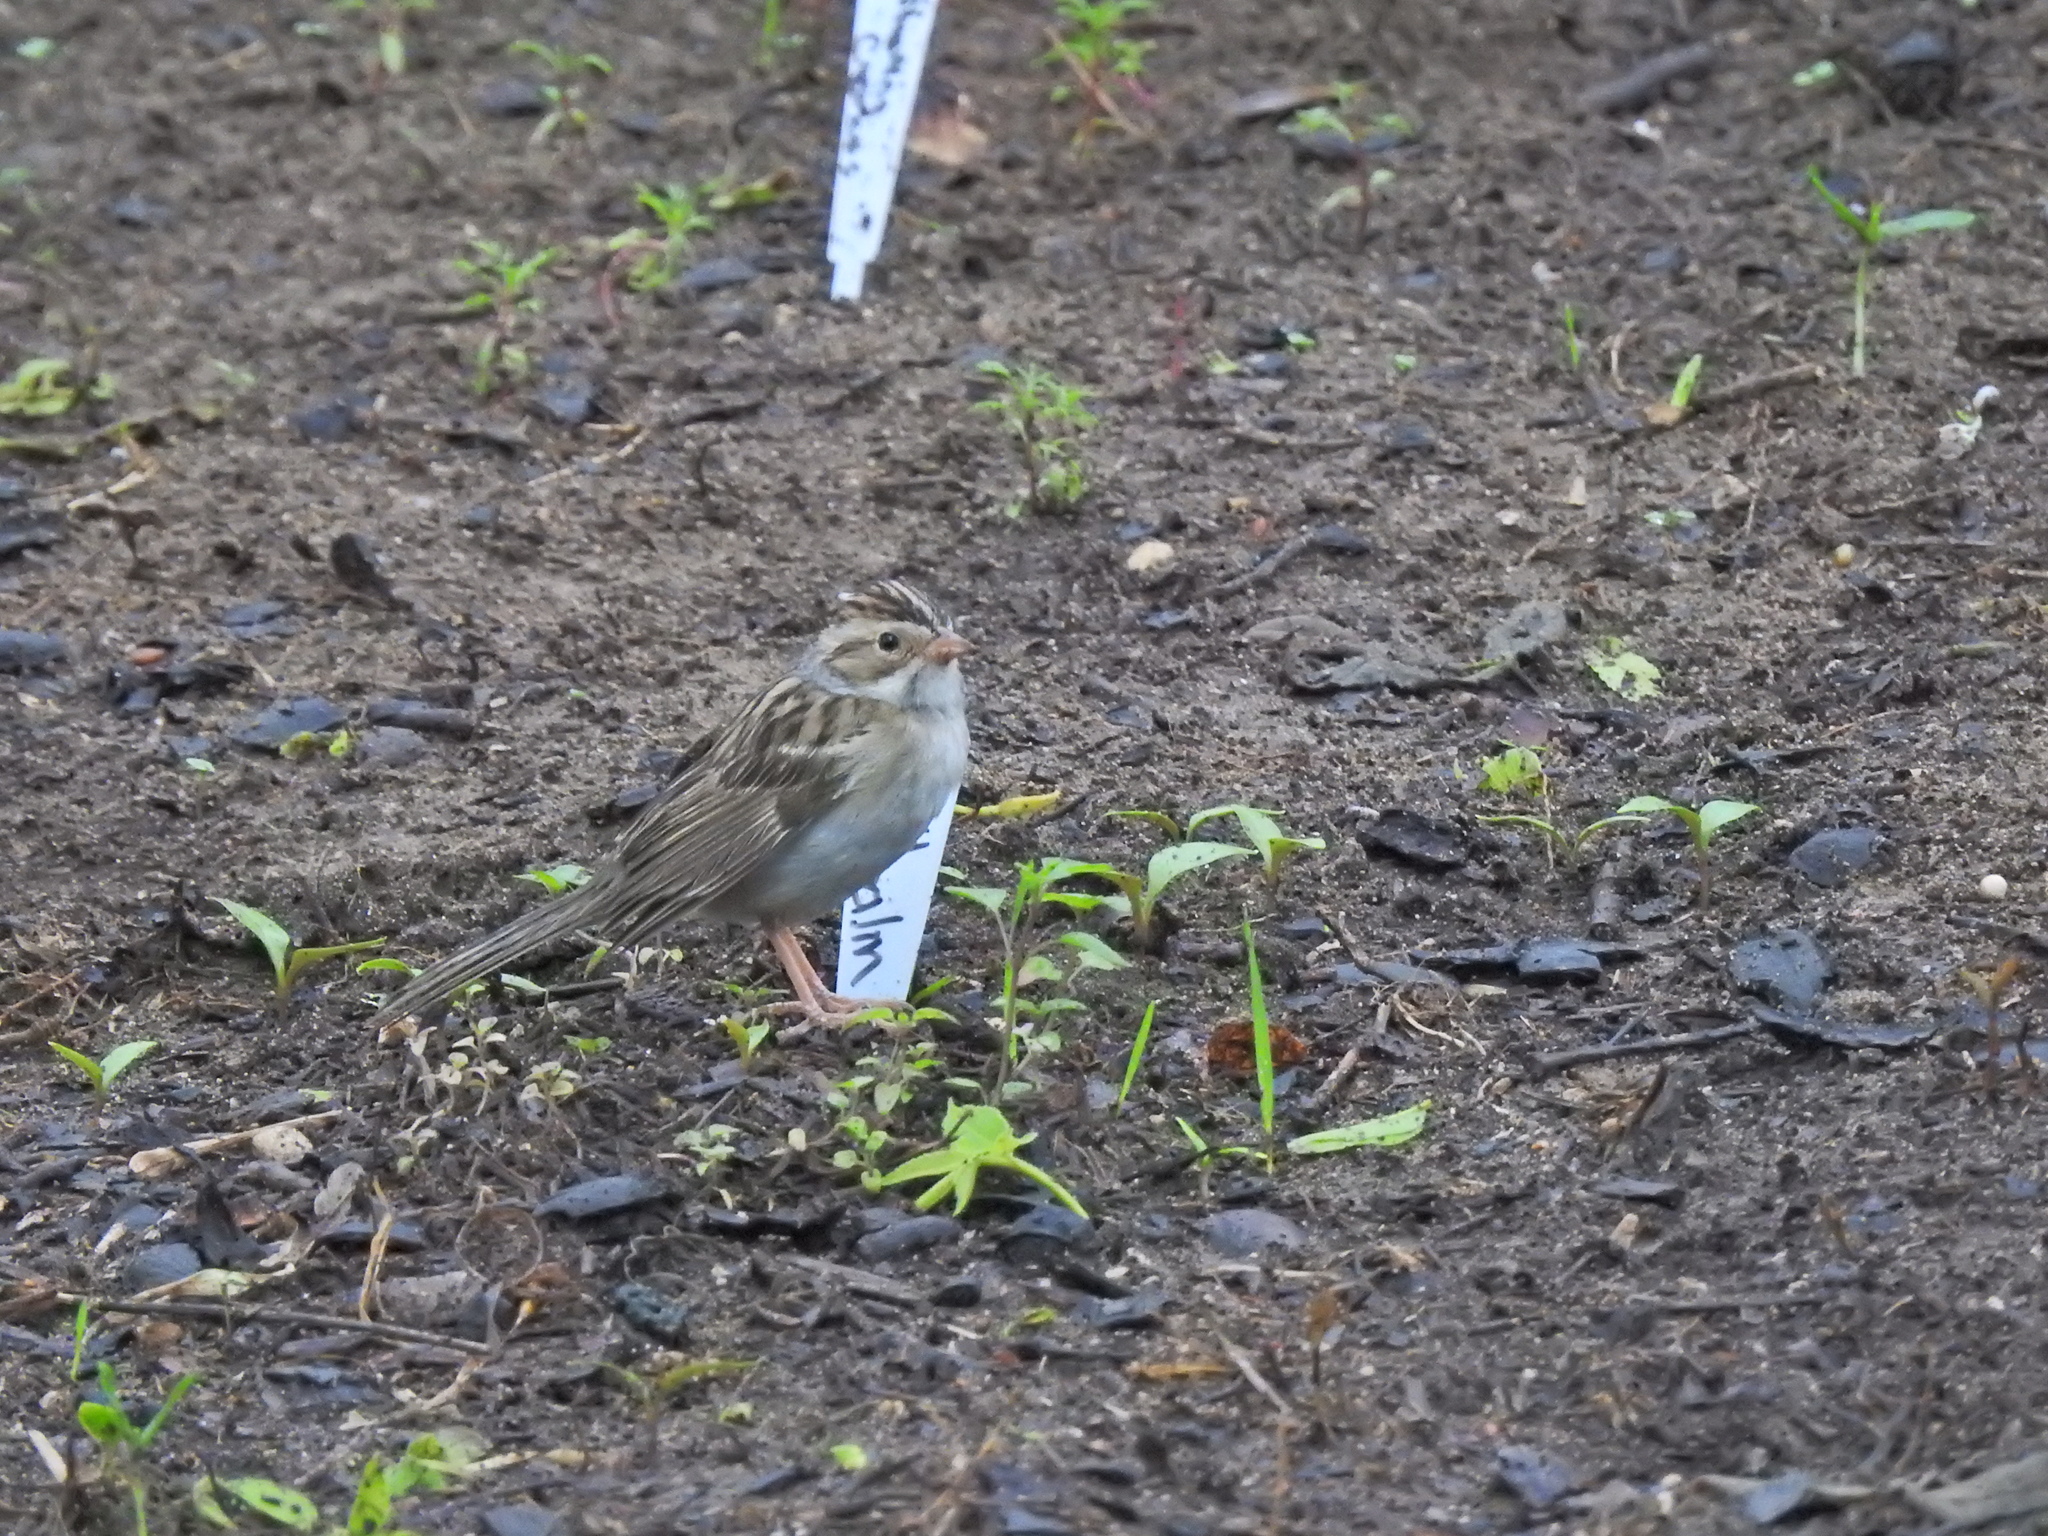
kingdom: Animalia
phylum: Chordata
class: Aves
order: Passeriformes
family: Passerellidae
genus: Spizella
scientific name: Spizella pallida
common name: Clay-colored sparrow
